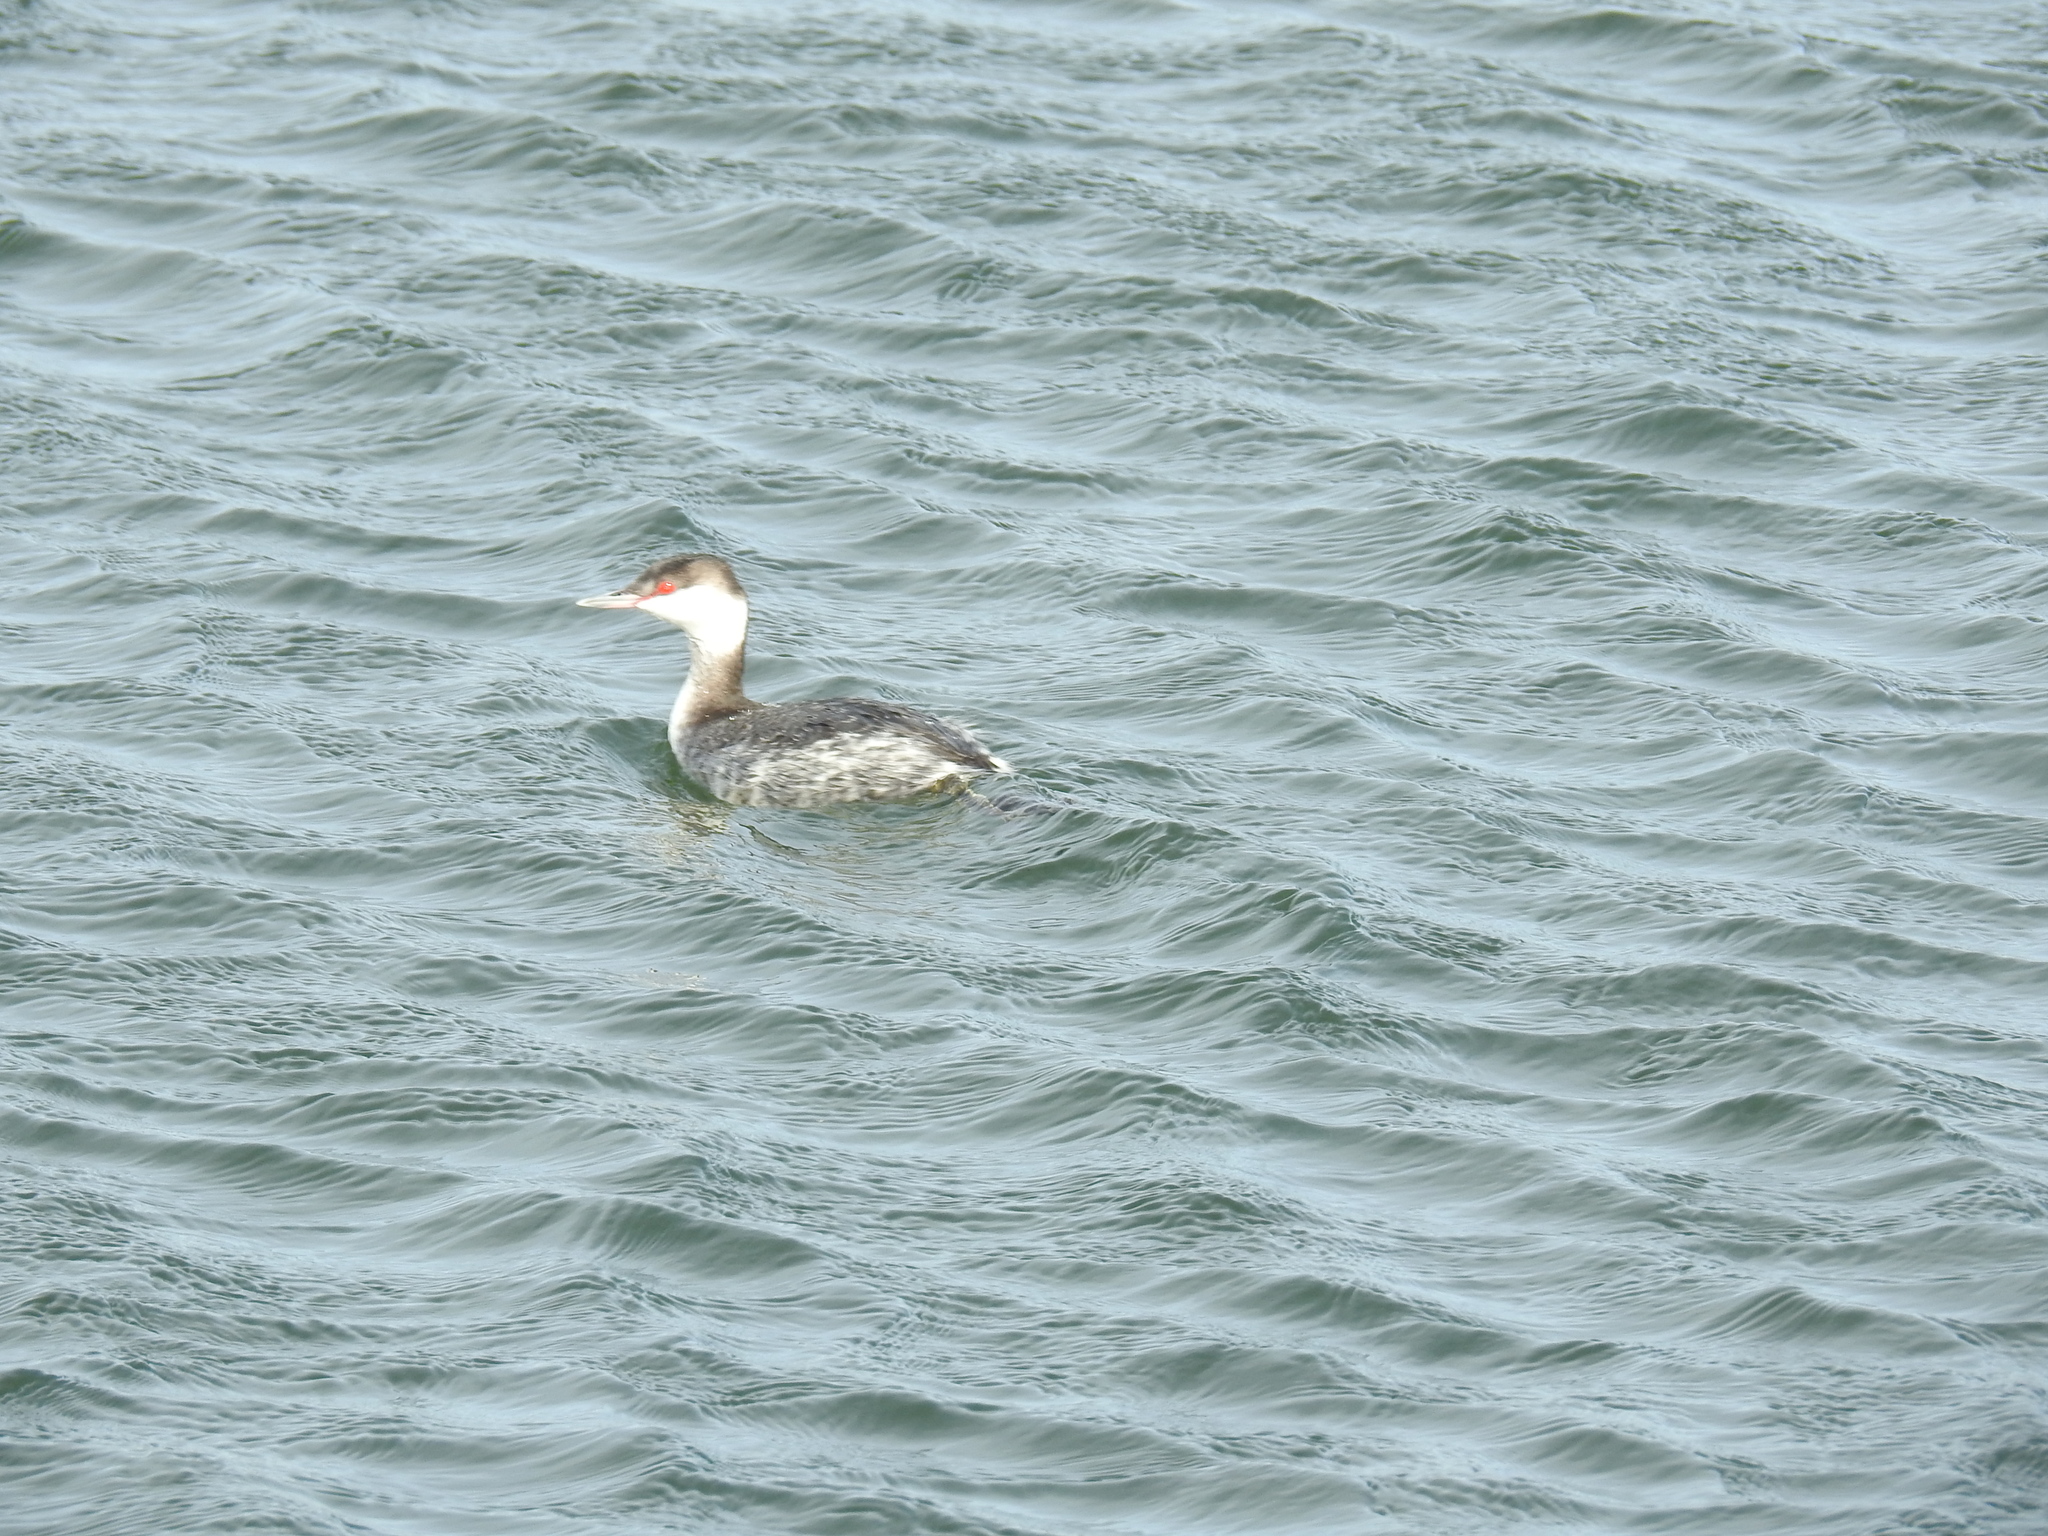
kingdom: Animalia
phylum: Chordata
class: Aves
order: Podicipediformes
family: Podicipedidae
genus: Podiceps
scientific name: Podiceps auritus
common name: Horned grebe
